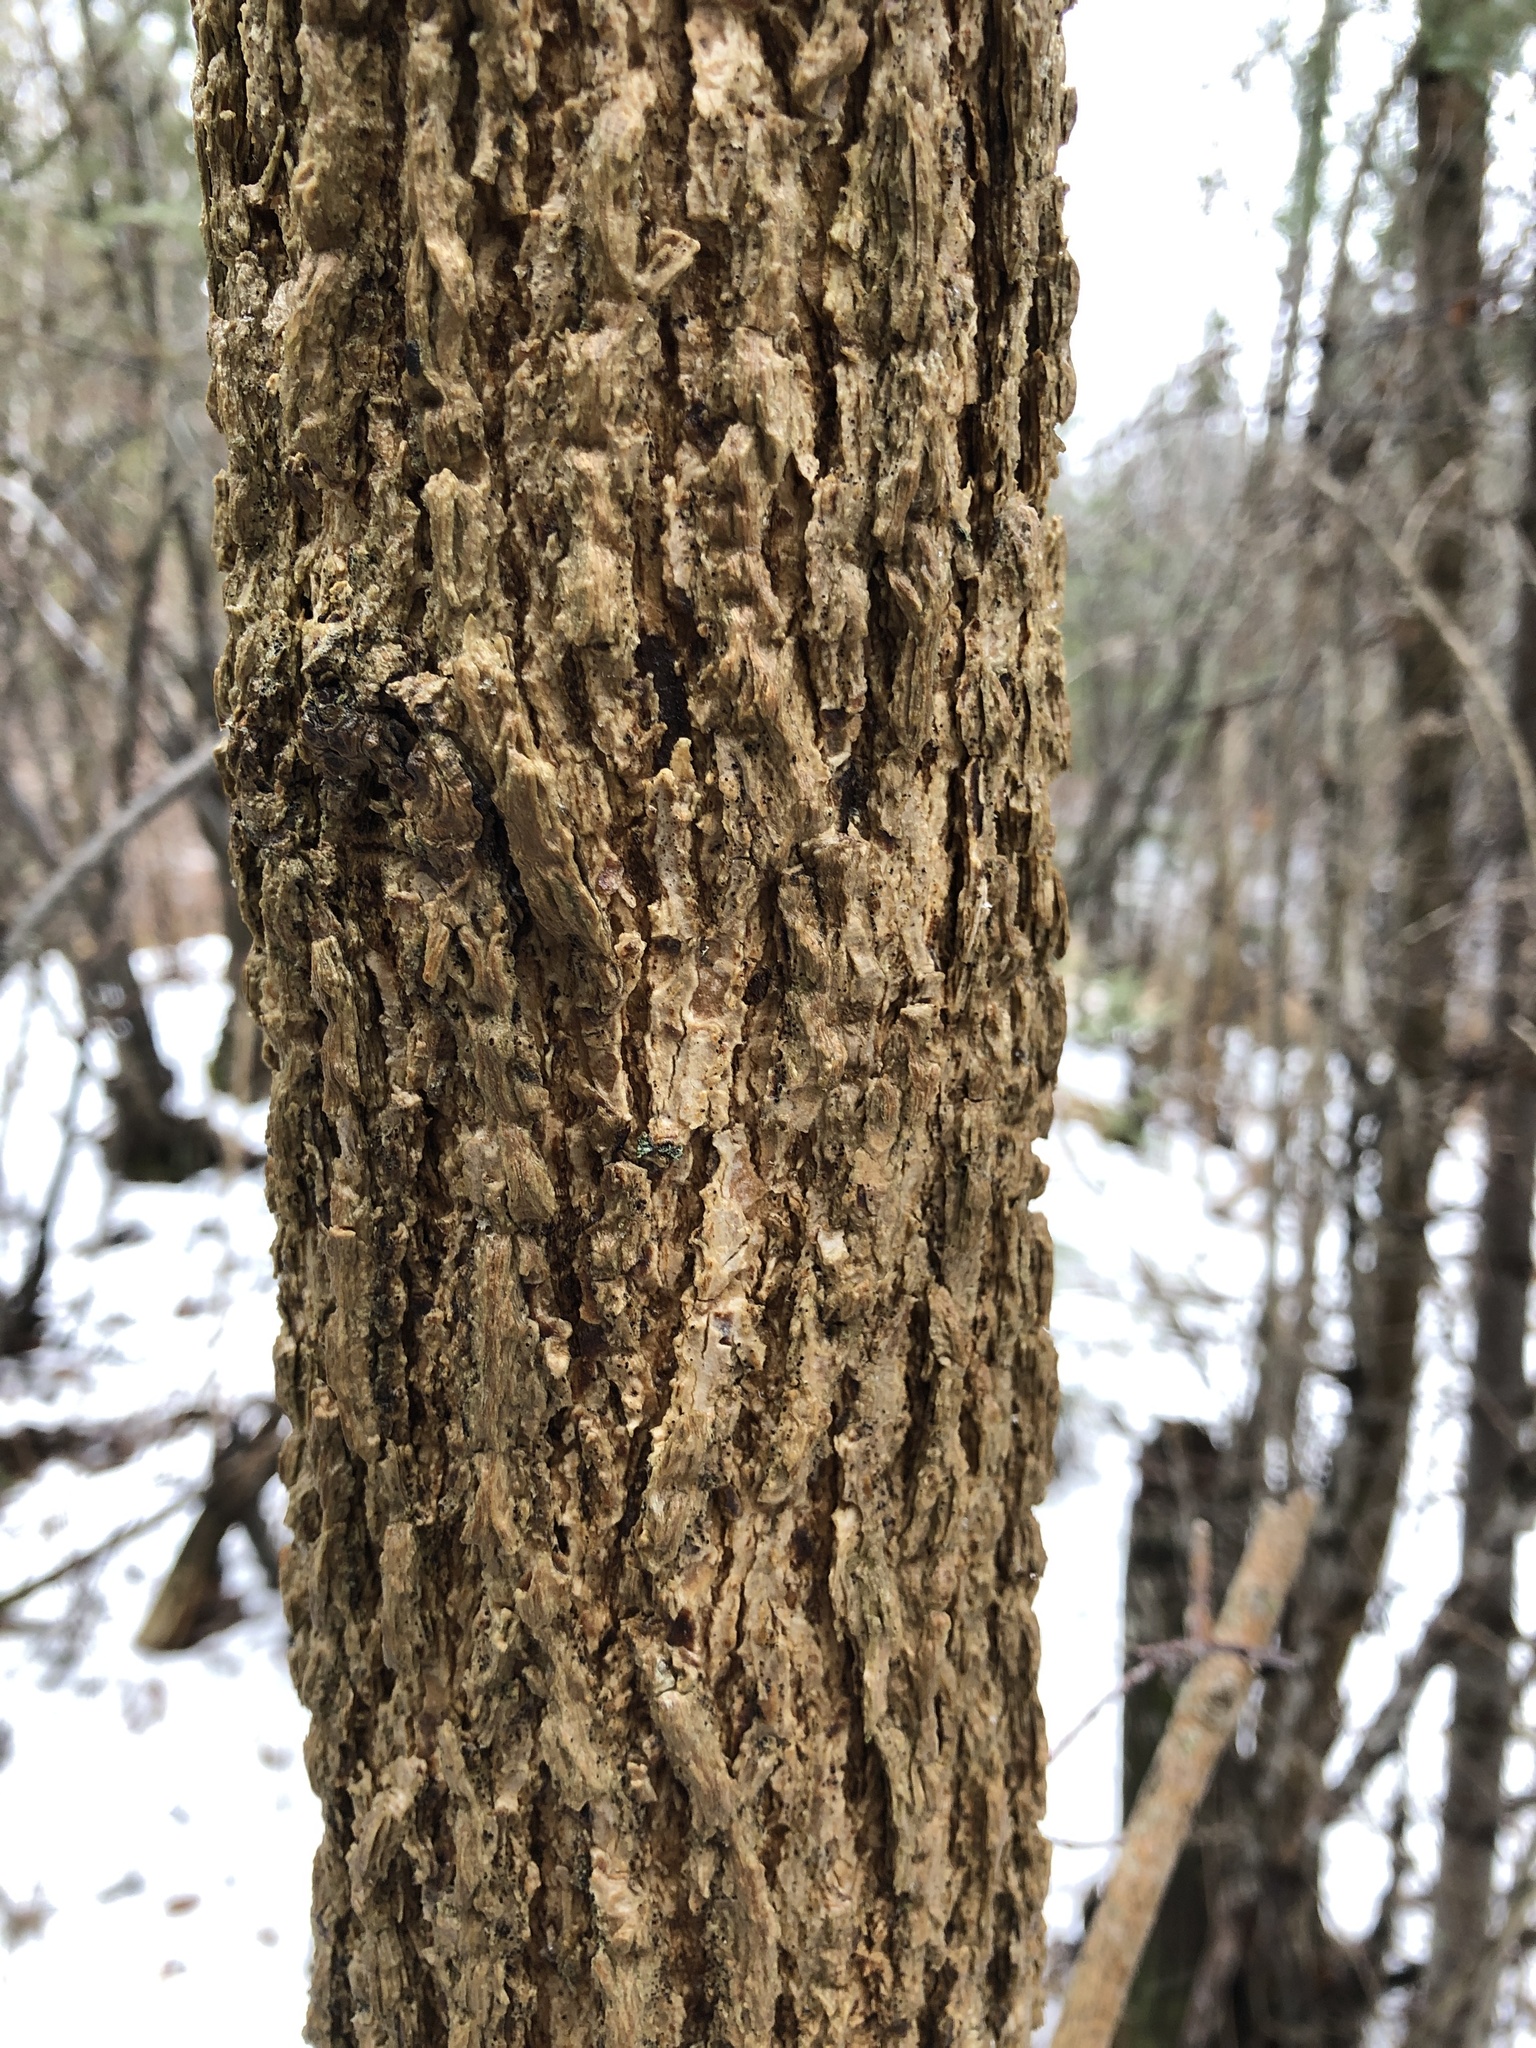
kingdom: Plantae
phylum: Tracheophyta
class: Magnoliopsida
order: Lamiales
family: Oleaceae
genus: Fraxinus
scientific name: Fraxinus nigra
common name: Black ash
